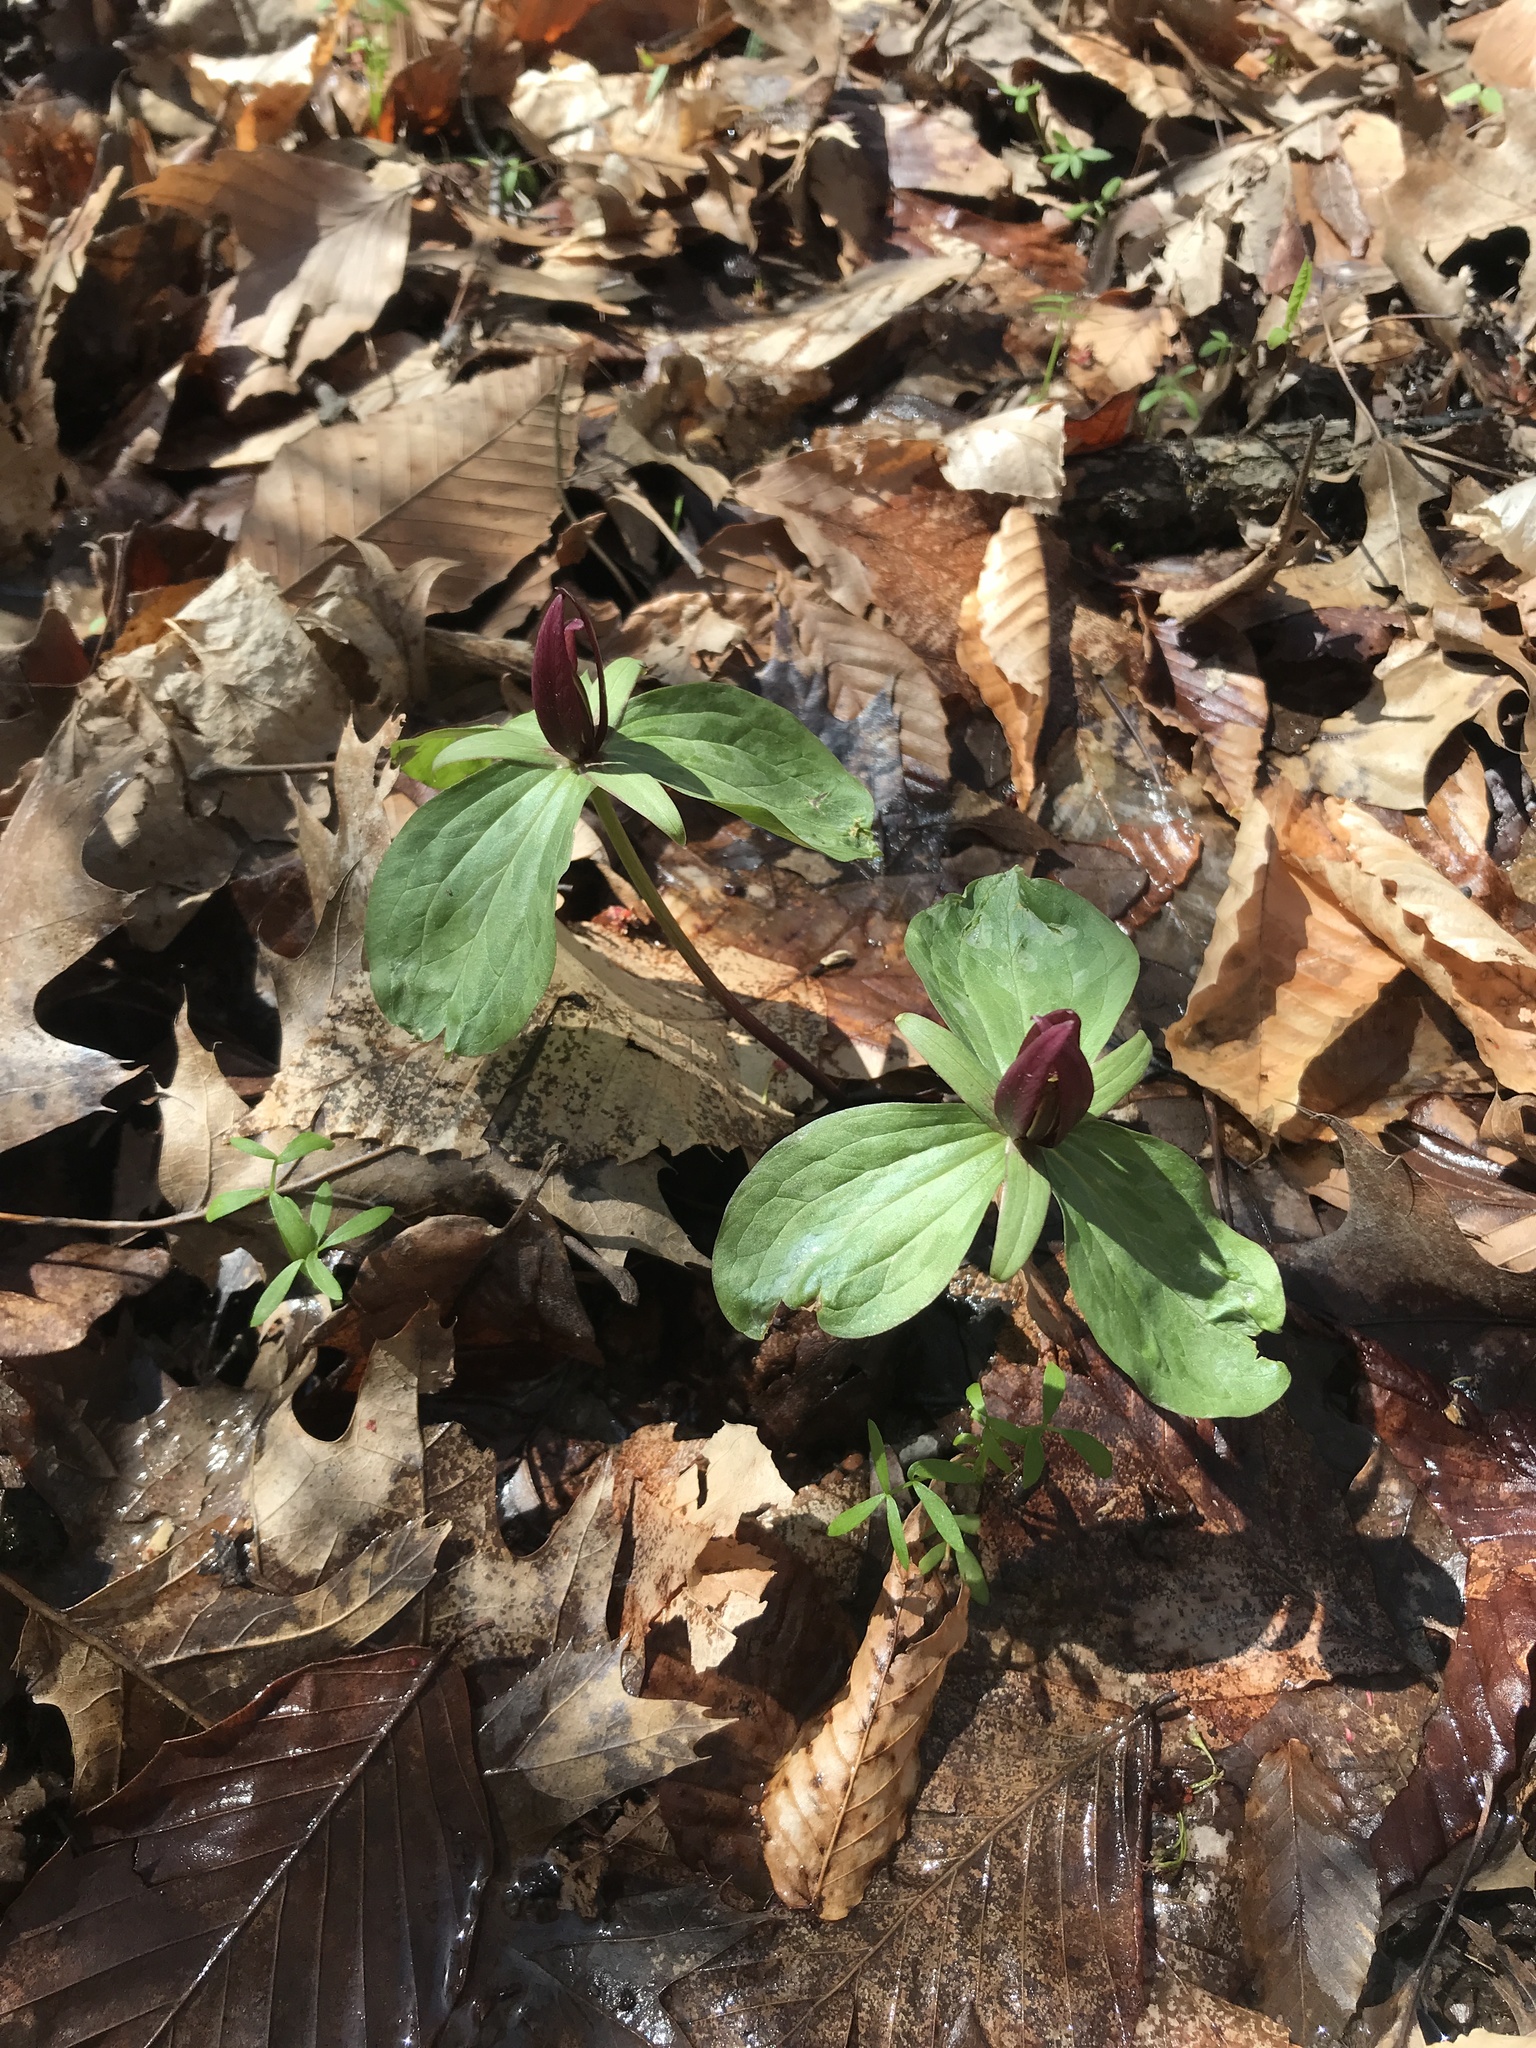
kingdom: Plantae
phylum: Tracheophyta
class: Liliopsida
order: Liliales
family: Melanthiaceae
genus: Trillium
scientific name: Trillium sessile
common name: Sessile trillium
